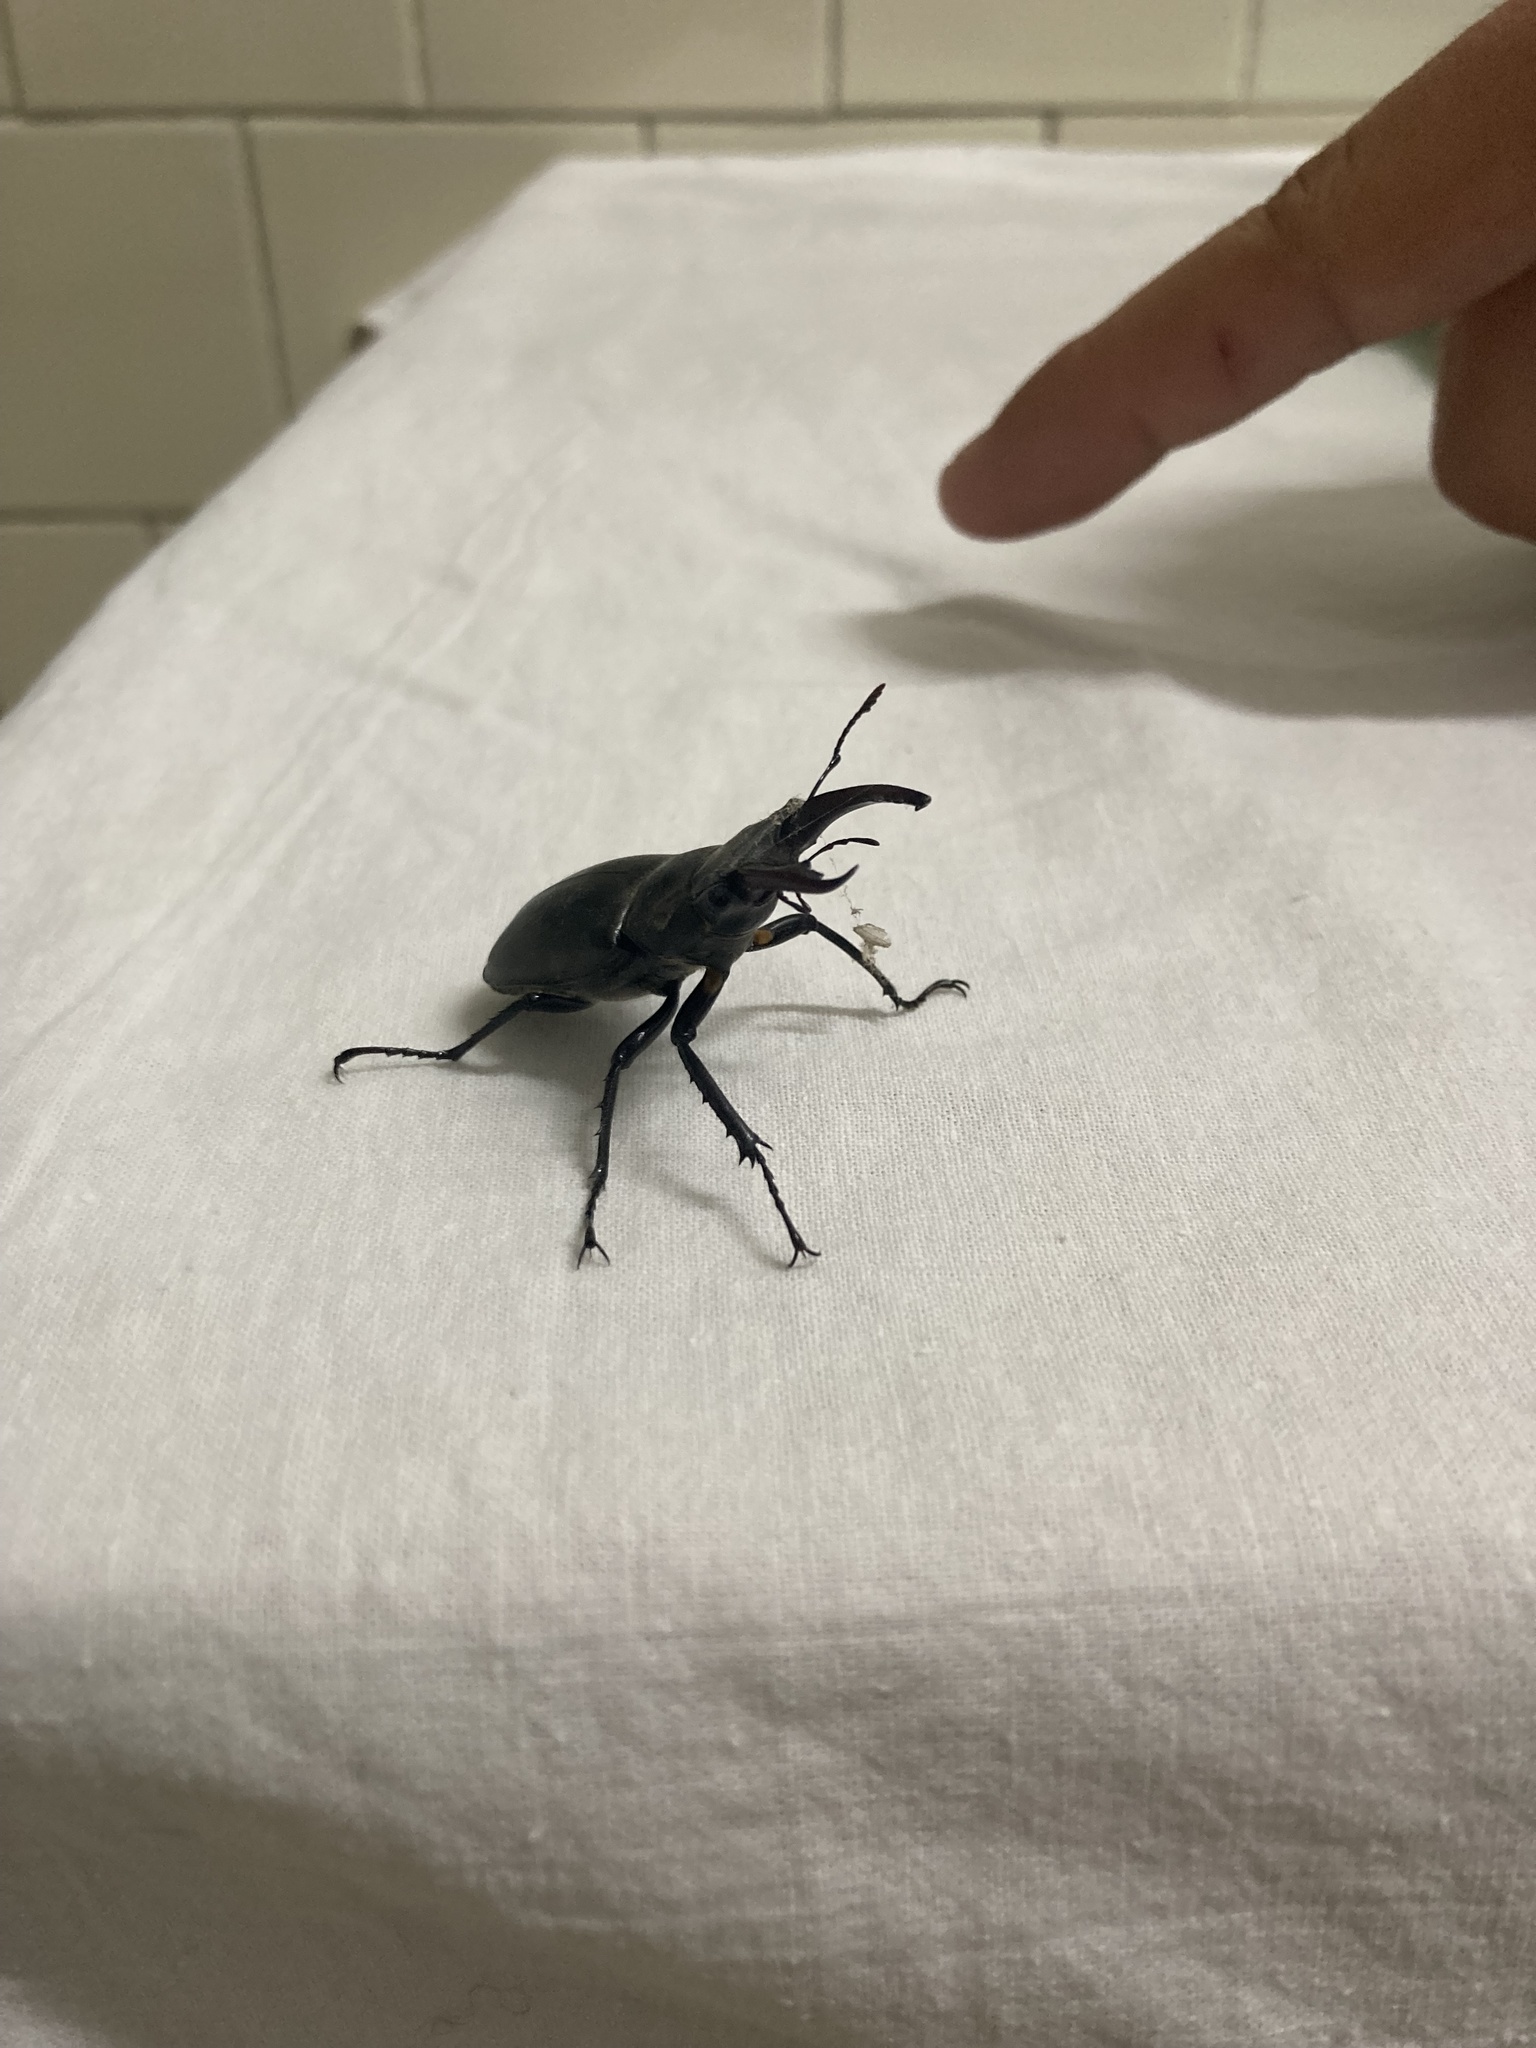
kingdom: Animalia
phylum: Arthropoda
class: Insecta
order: Coleoptera
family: Lucanidae
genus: Lucanus
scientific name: Lucanus cervus
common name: Stag beetle
